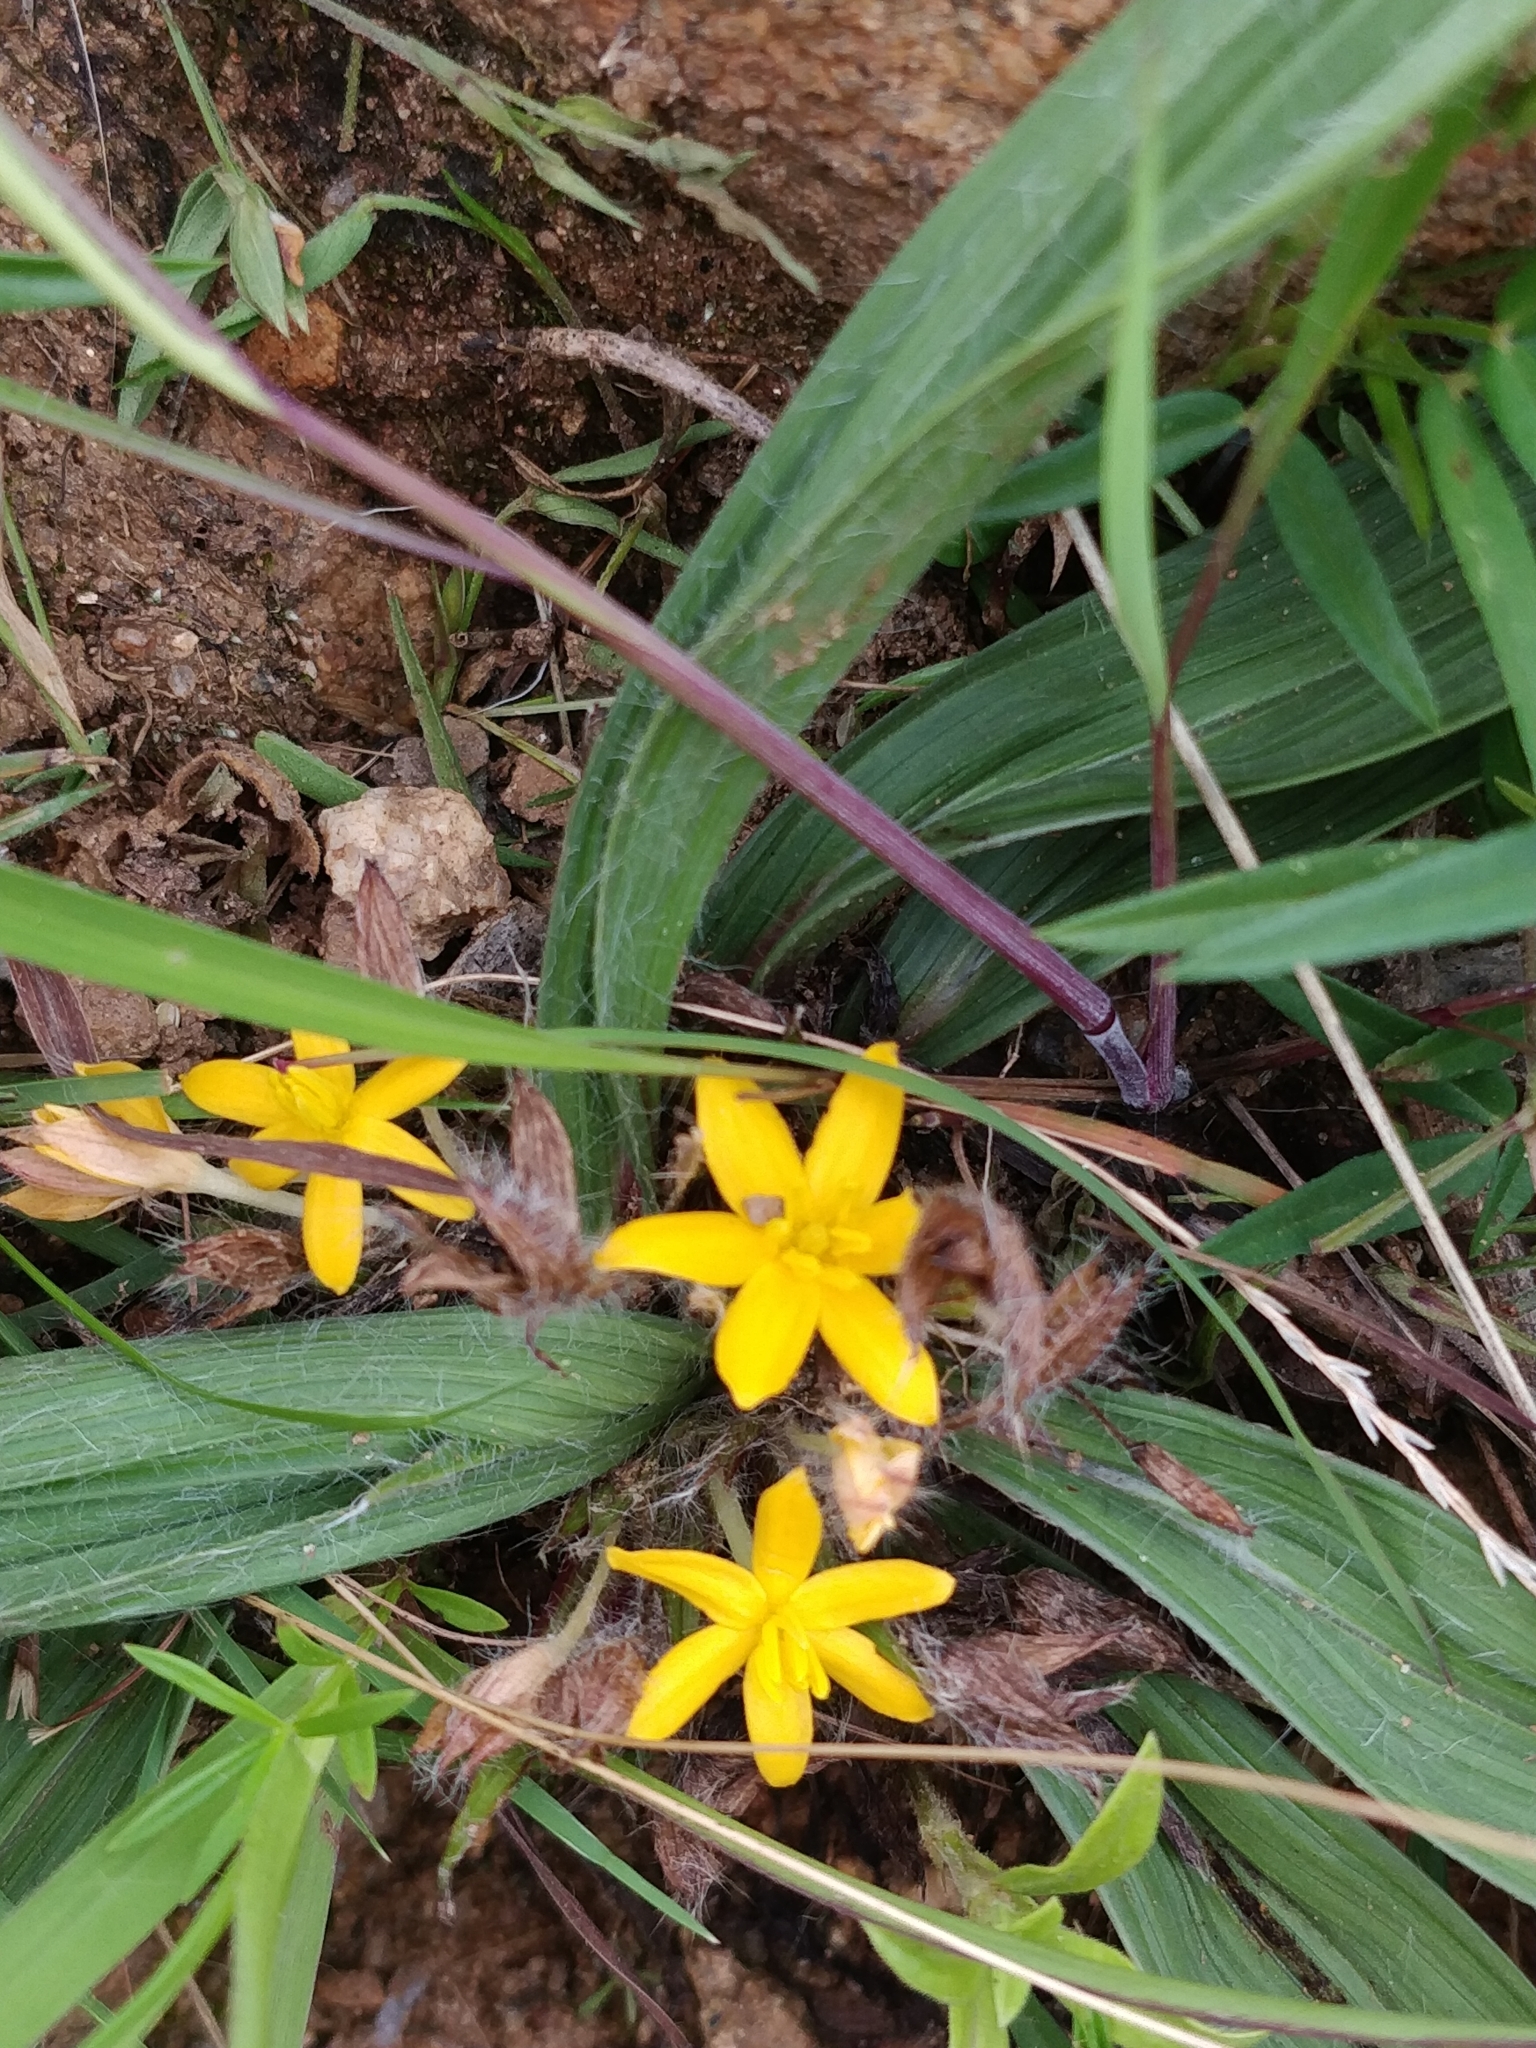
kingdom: Plantae
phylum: Tracheophyta
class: Liliopsida
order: Asparagales
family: Hypoxidaceae
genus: Curculigo
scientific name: Curculigo orchioides
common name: Golden eye-grass
